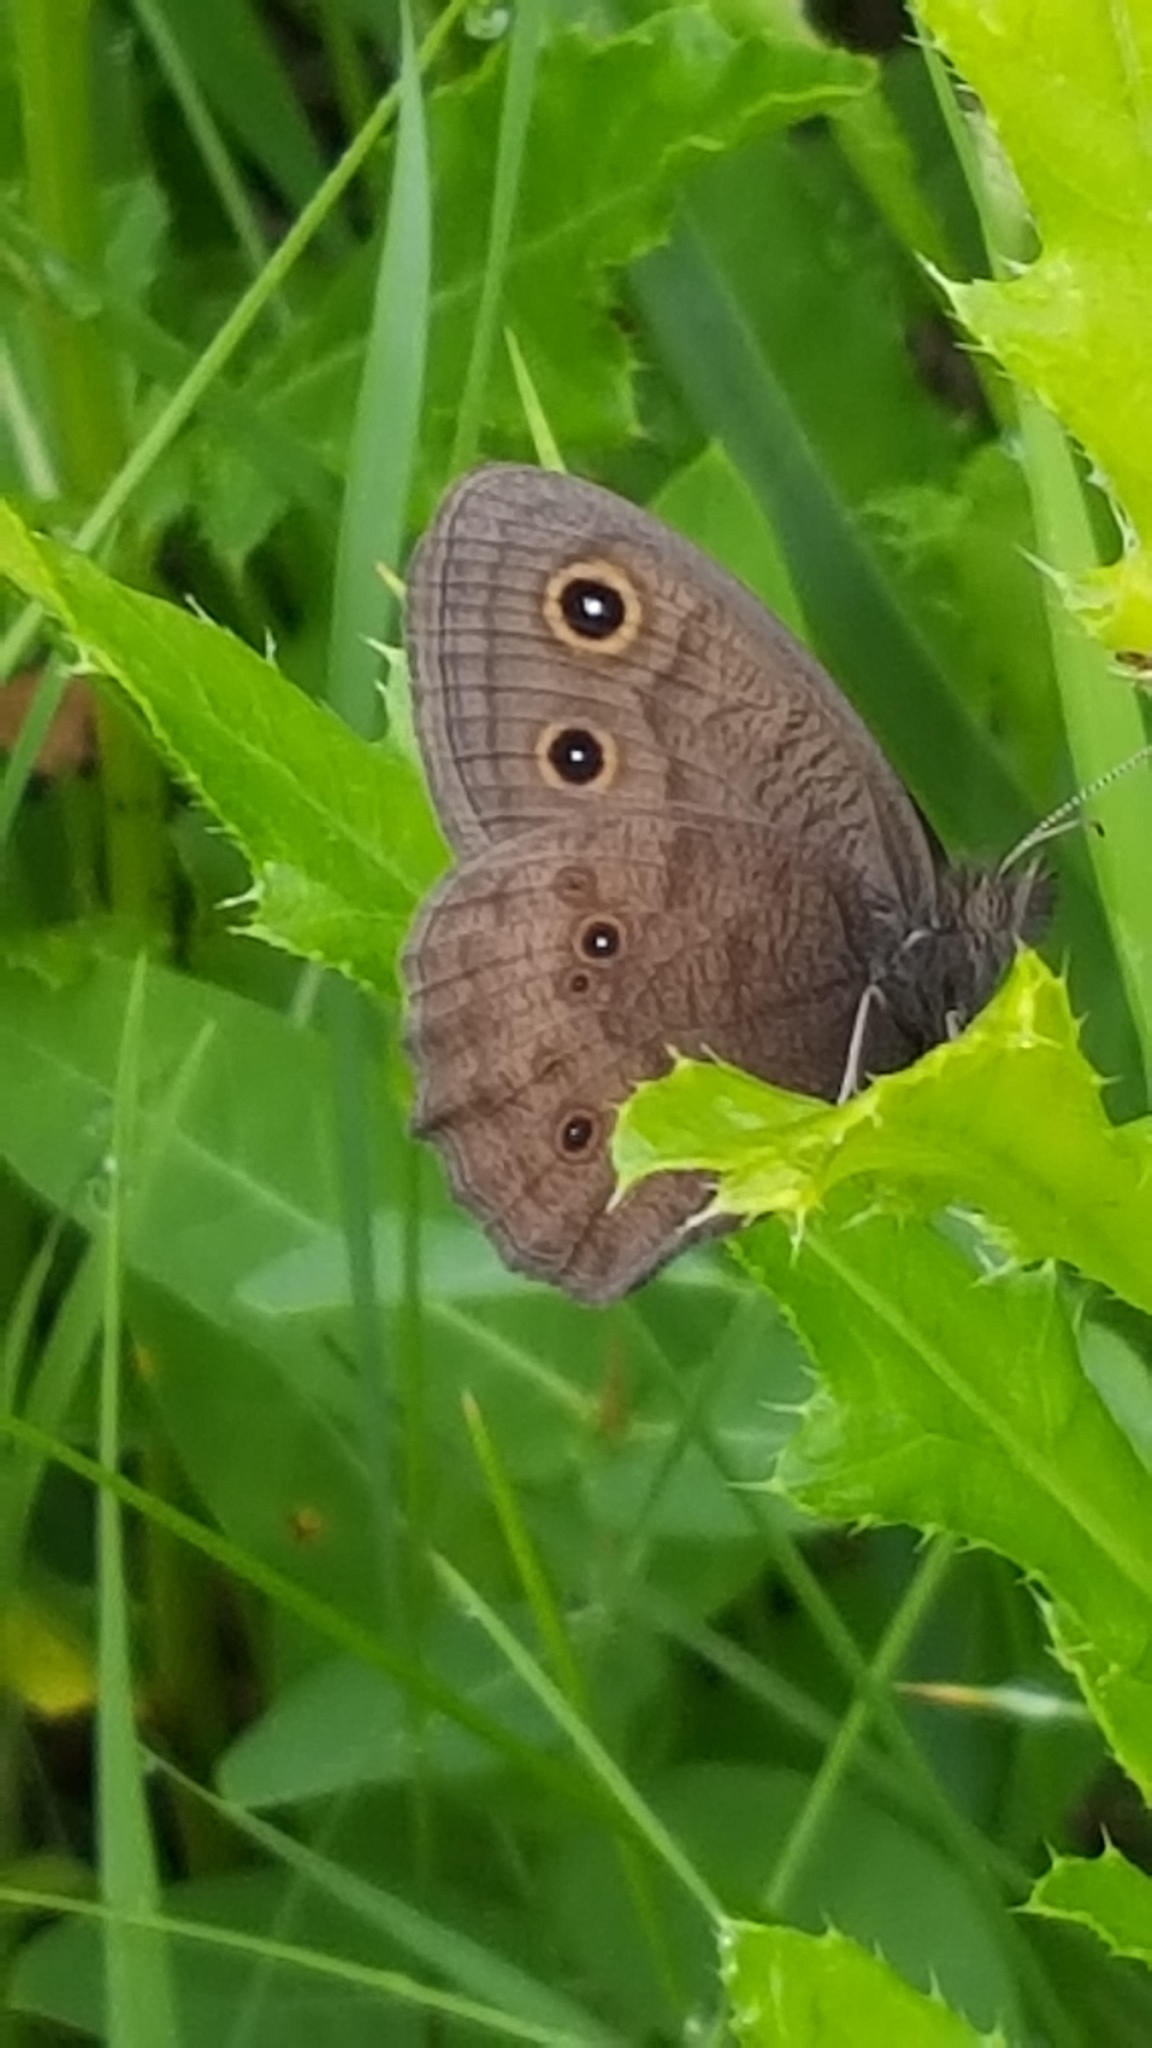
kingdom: Animalia
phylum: Arthropoda
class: Insecta
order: Lepidoptera
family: Nymphalidae
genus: Cercyonis
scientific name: Cercyonis pegala
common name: Common wood-nymph
